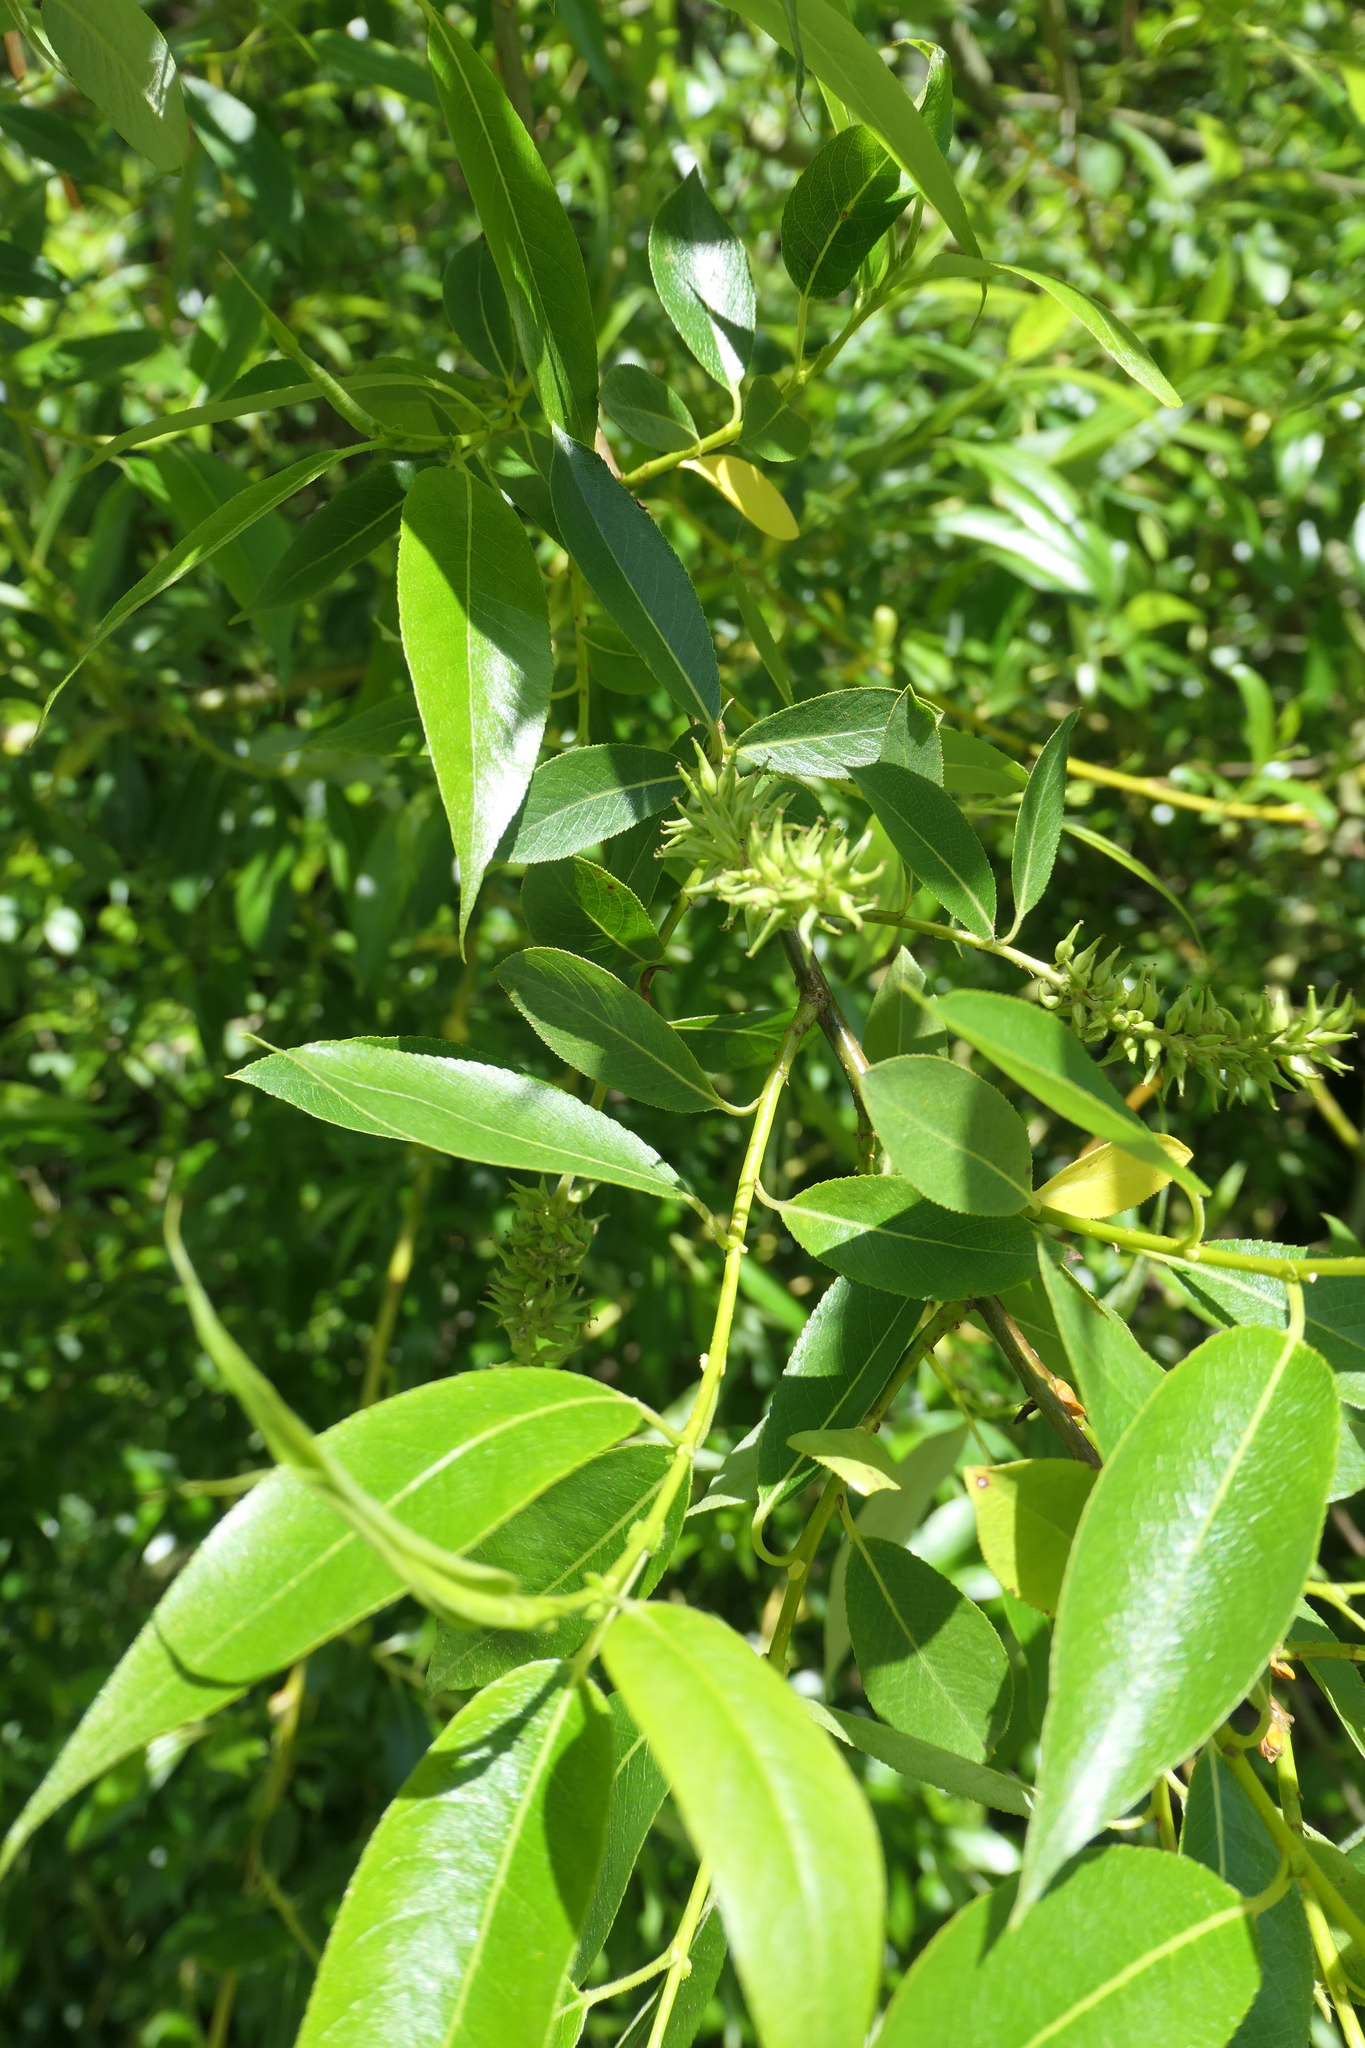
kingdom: Plantae
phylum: Tracheophyta
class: Magnoliopsida
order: Malpighiales
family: Salicaceae
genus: Salix
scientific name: Salix lucida
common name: Shining willow
